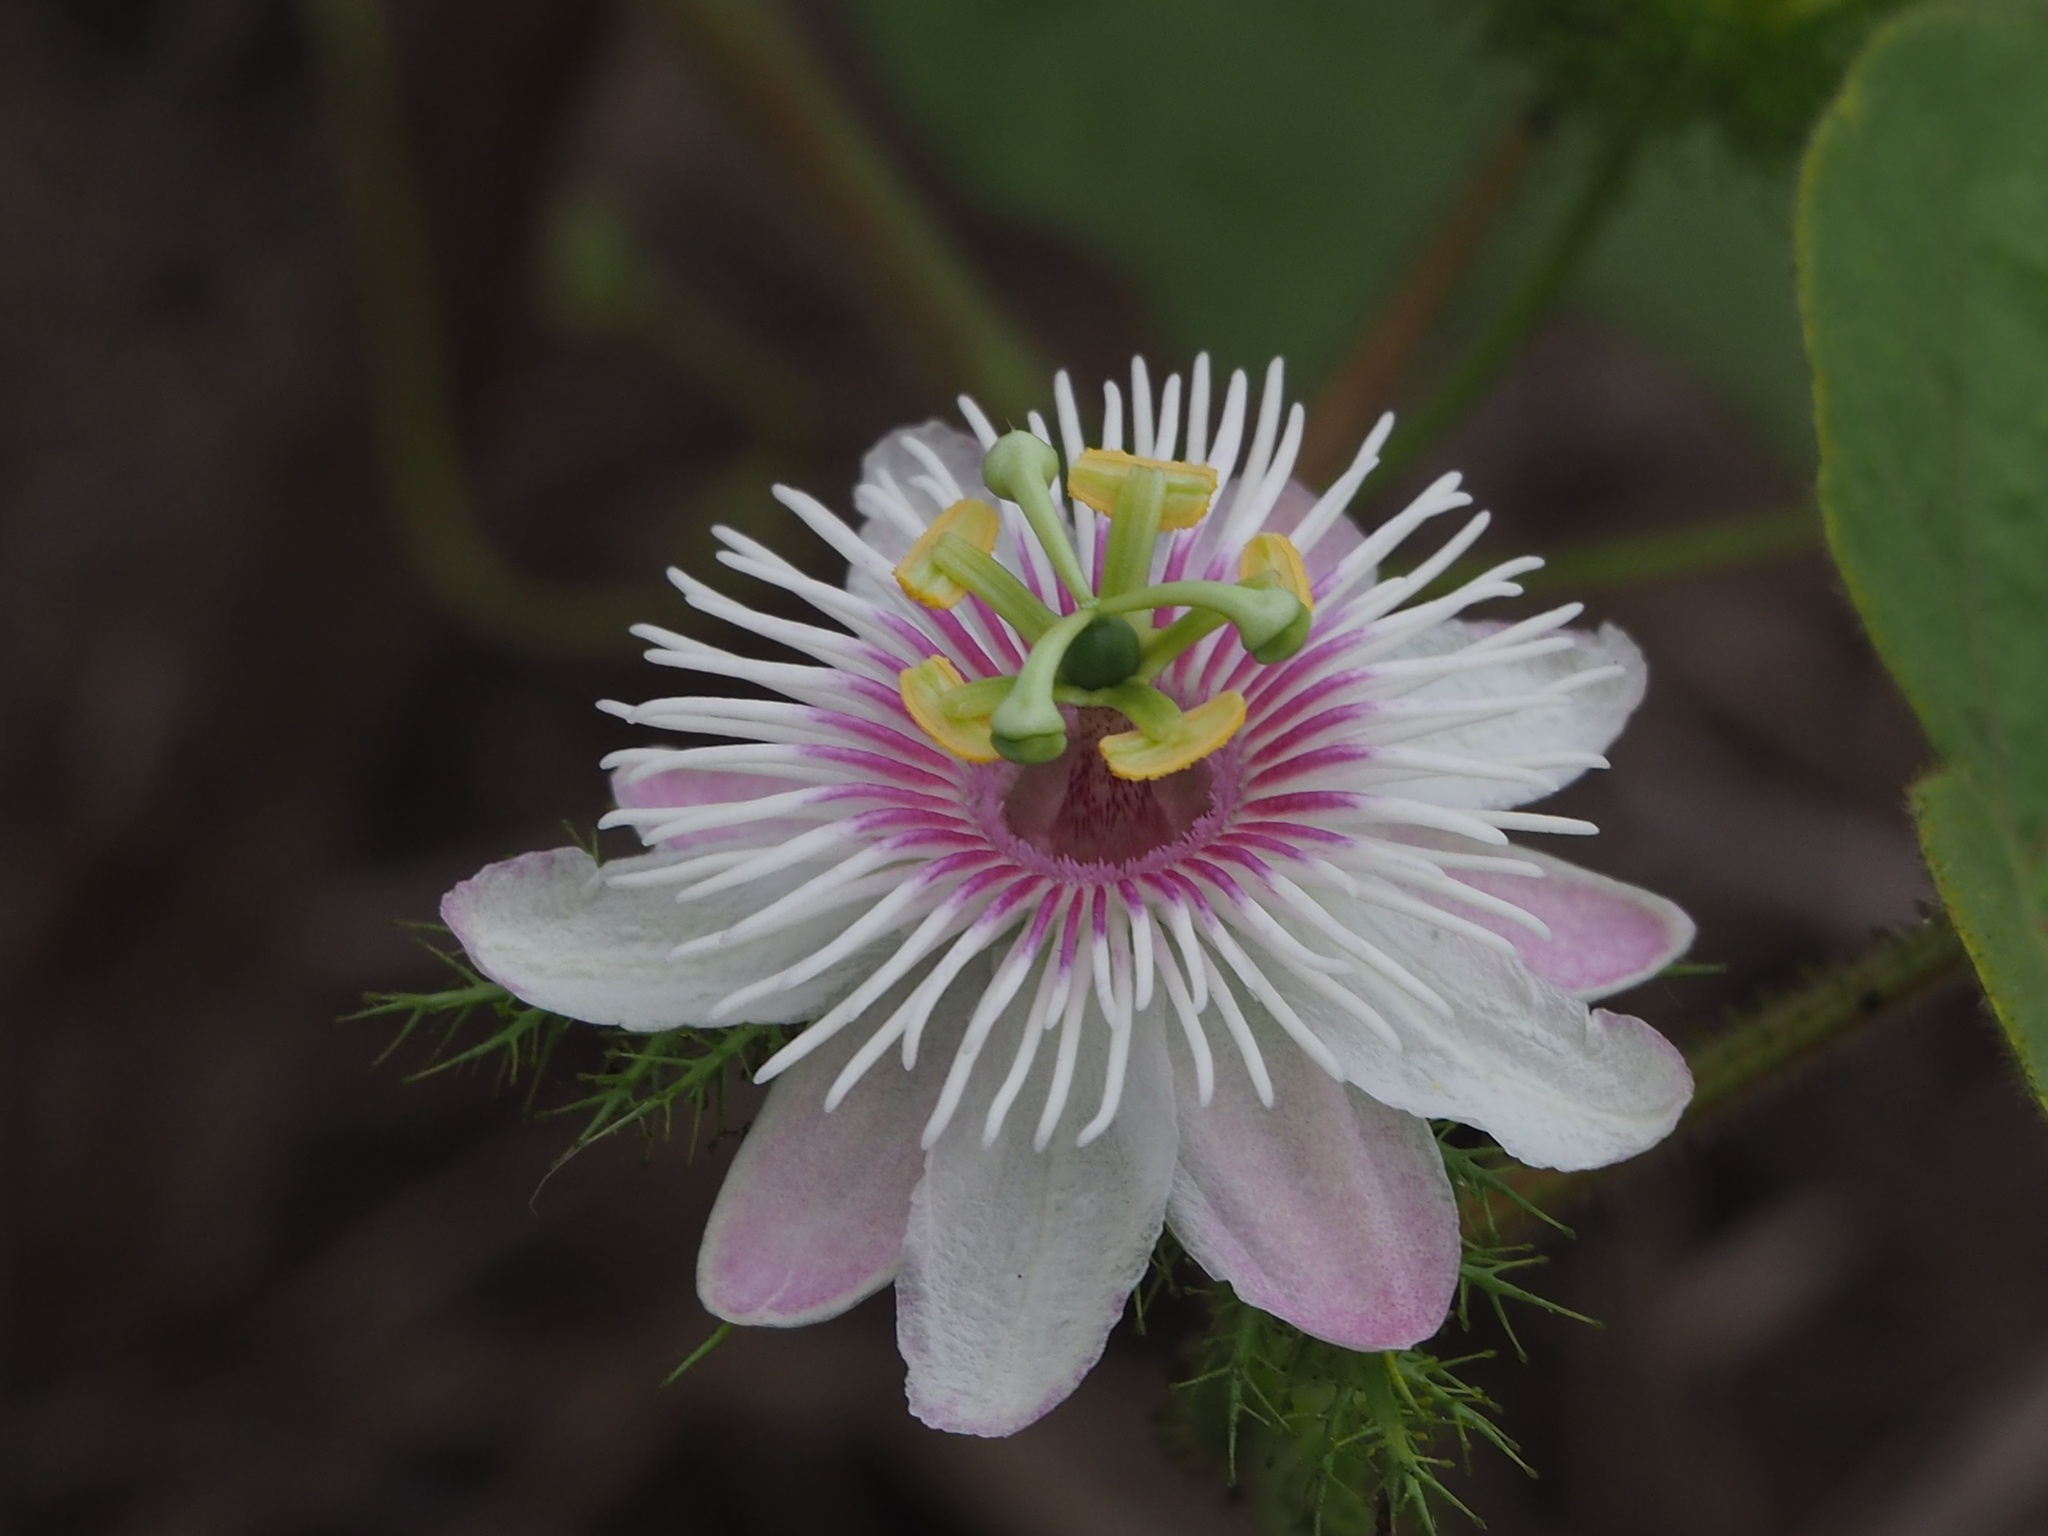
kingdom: Plantae
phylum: Tracheophyta
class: Magnoliopsida
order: Malpighiales
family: Passifloraceae
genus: Passiflora
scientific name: Passiflora vesicaria
